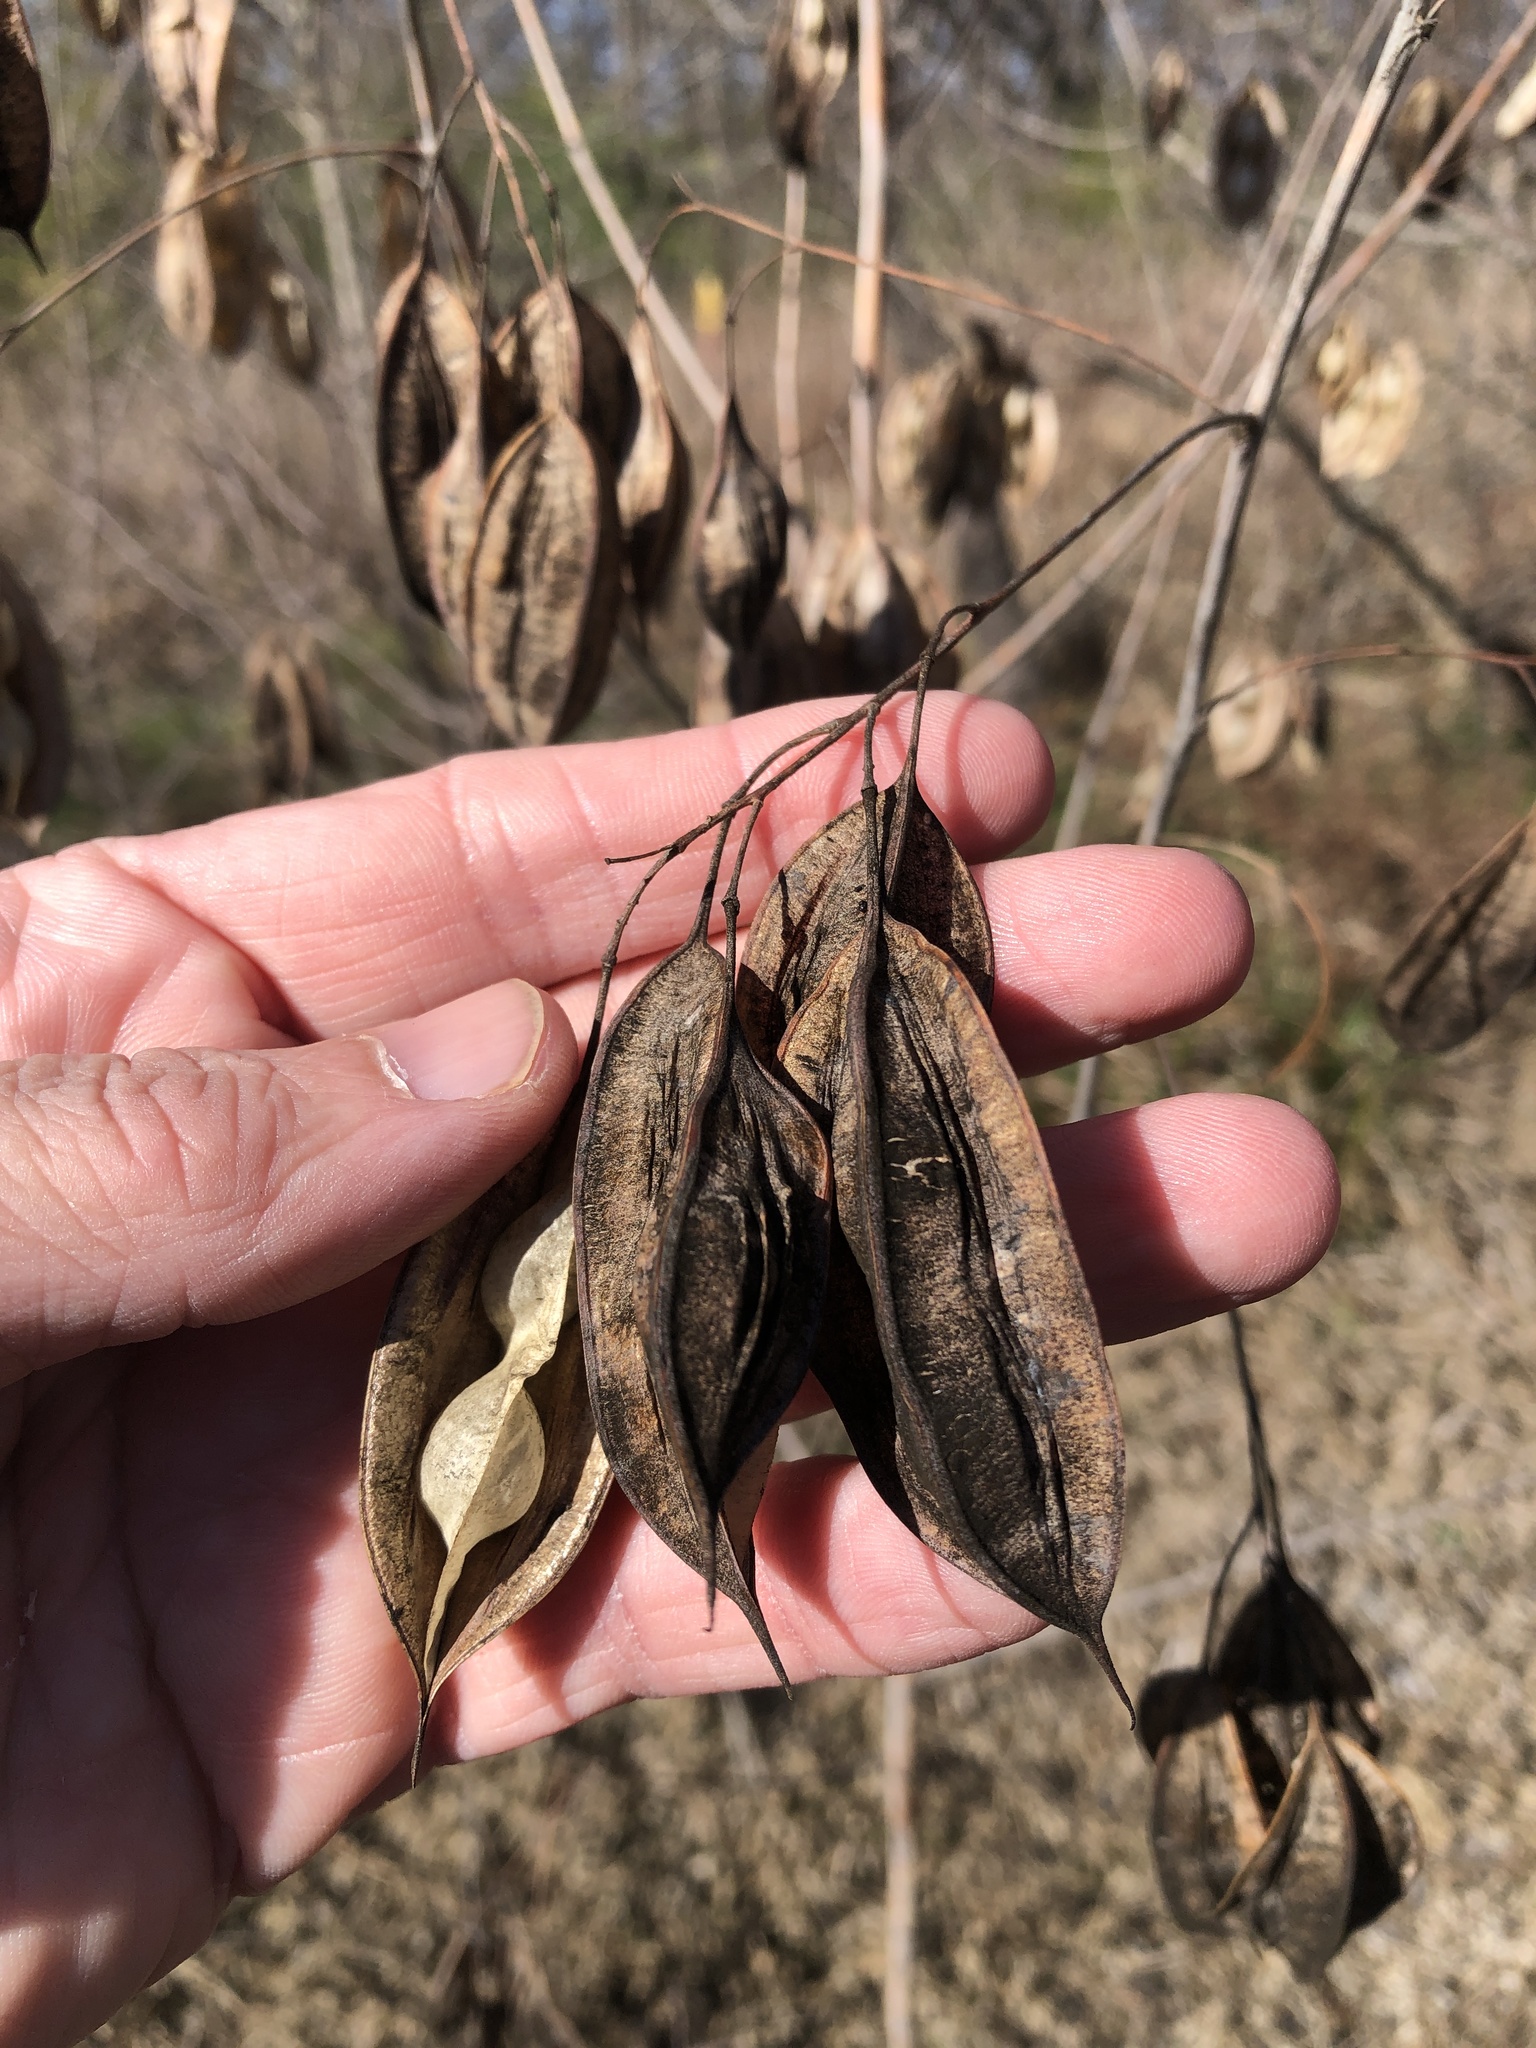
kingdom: Plantae
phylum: Tracheophyta
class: Magnoliopsida
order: Fabales
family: Fabaceae
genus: Sesbania
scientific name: Sesbania vesicaria
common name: Bagpod
